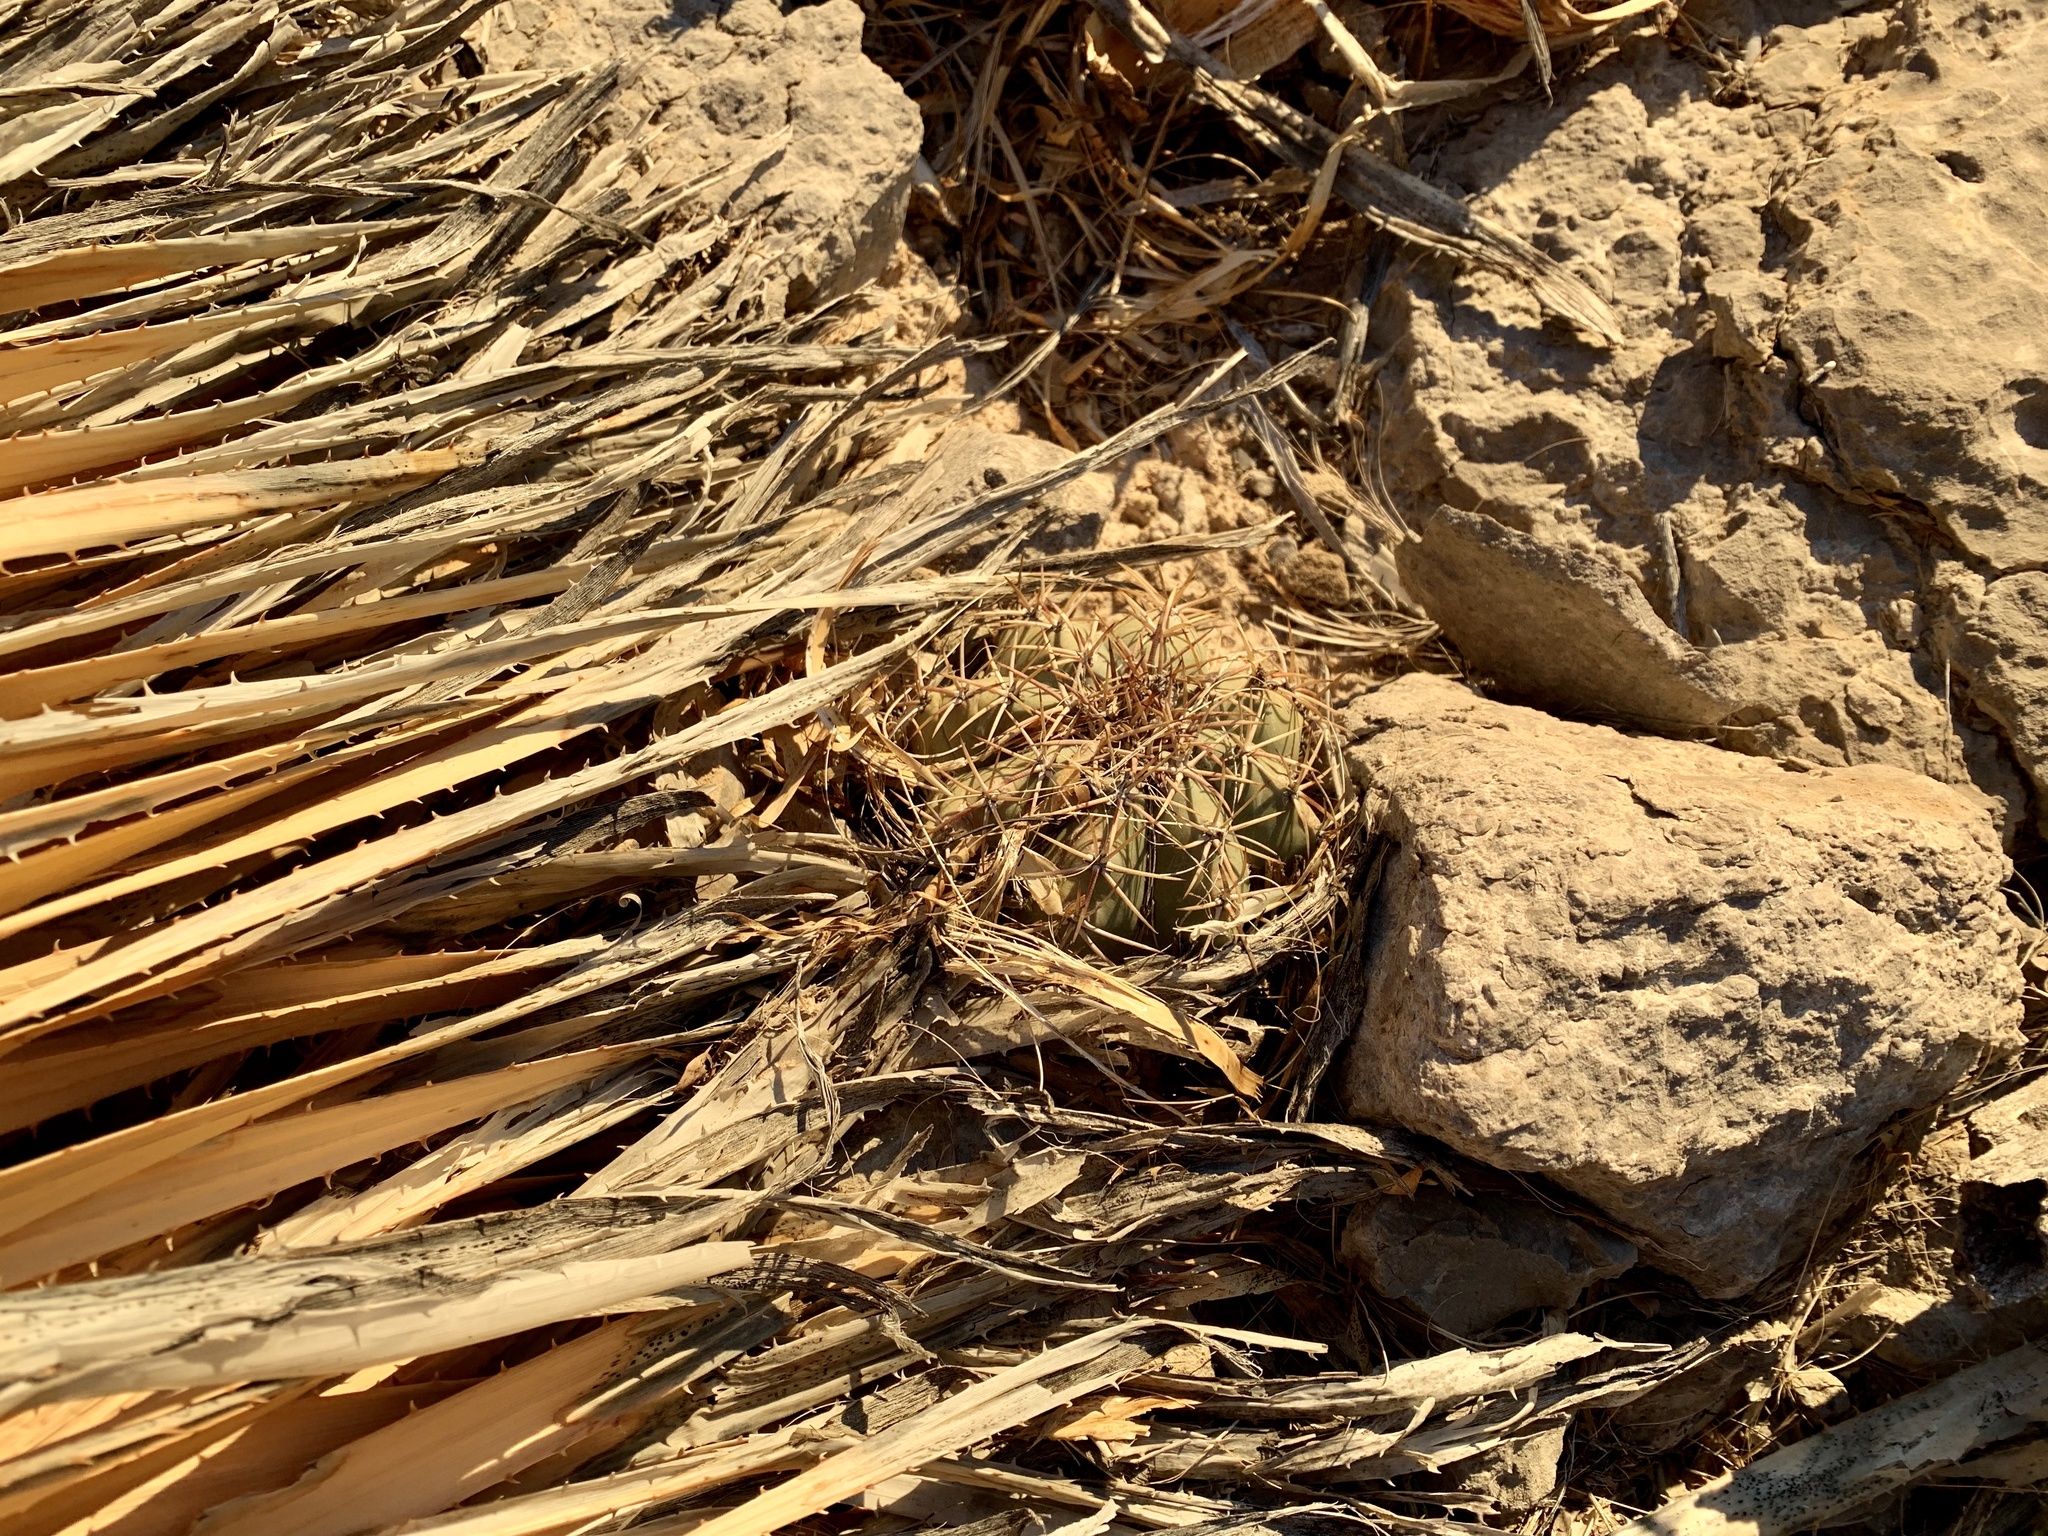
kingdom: Plantae
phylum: Tracheophyta
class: Magnoliopsida
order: Caryophyllales
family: Cactaceae
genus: Echinocactus
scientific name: Echinocactus horizonthalonius
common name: Devilshead
